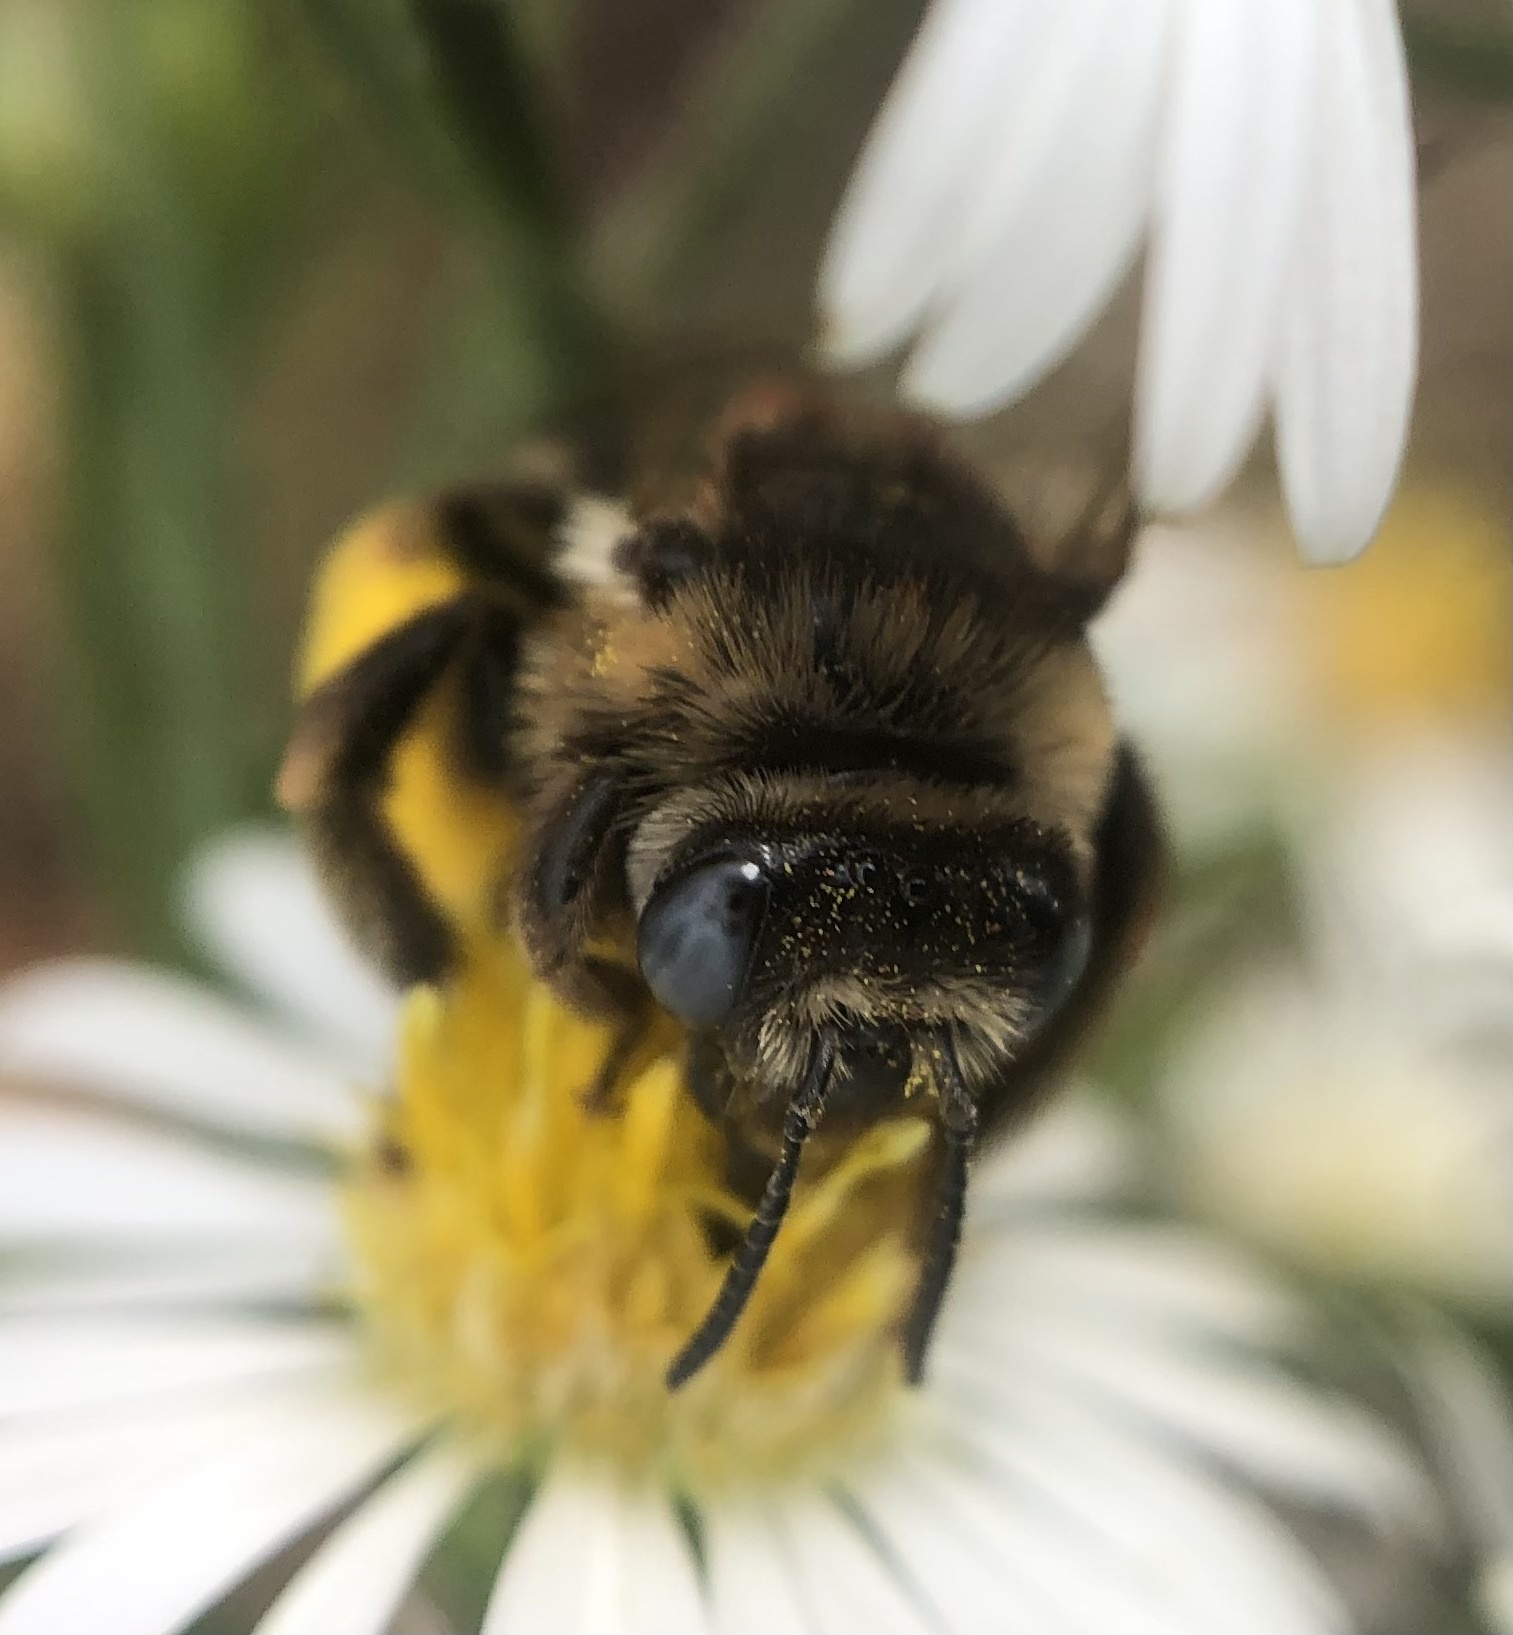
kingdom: Animalia
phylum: Arthropoda
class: Insecta
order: Hymenoptera
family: Apidae
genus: Melissodes
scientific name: Melissodes druriellus
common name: Drury's long-horned bee
